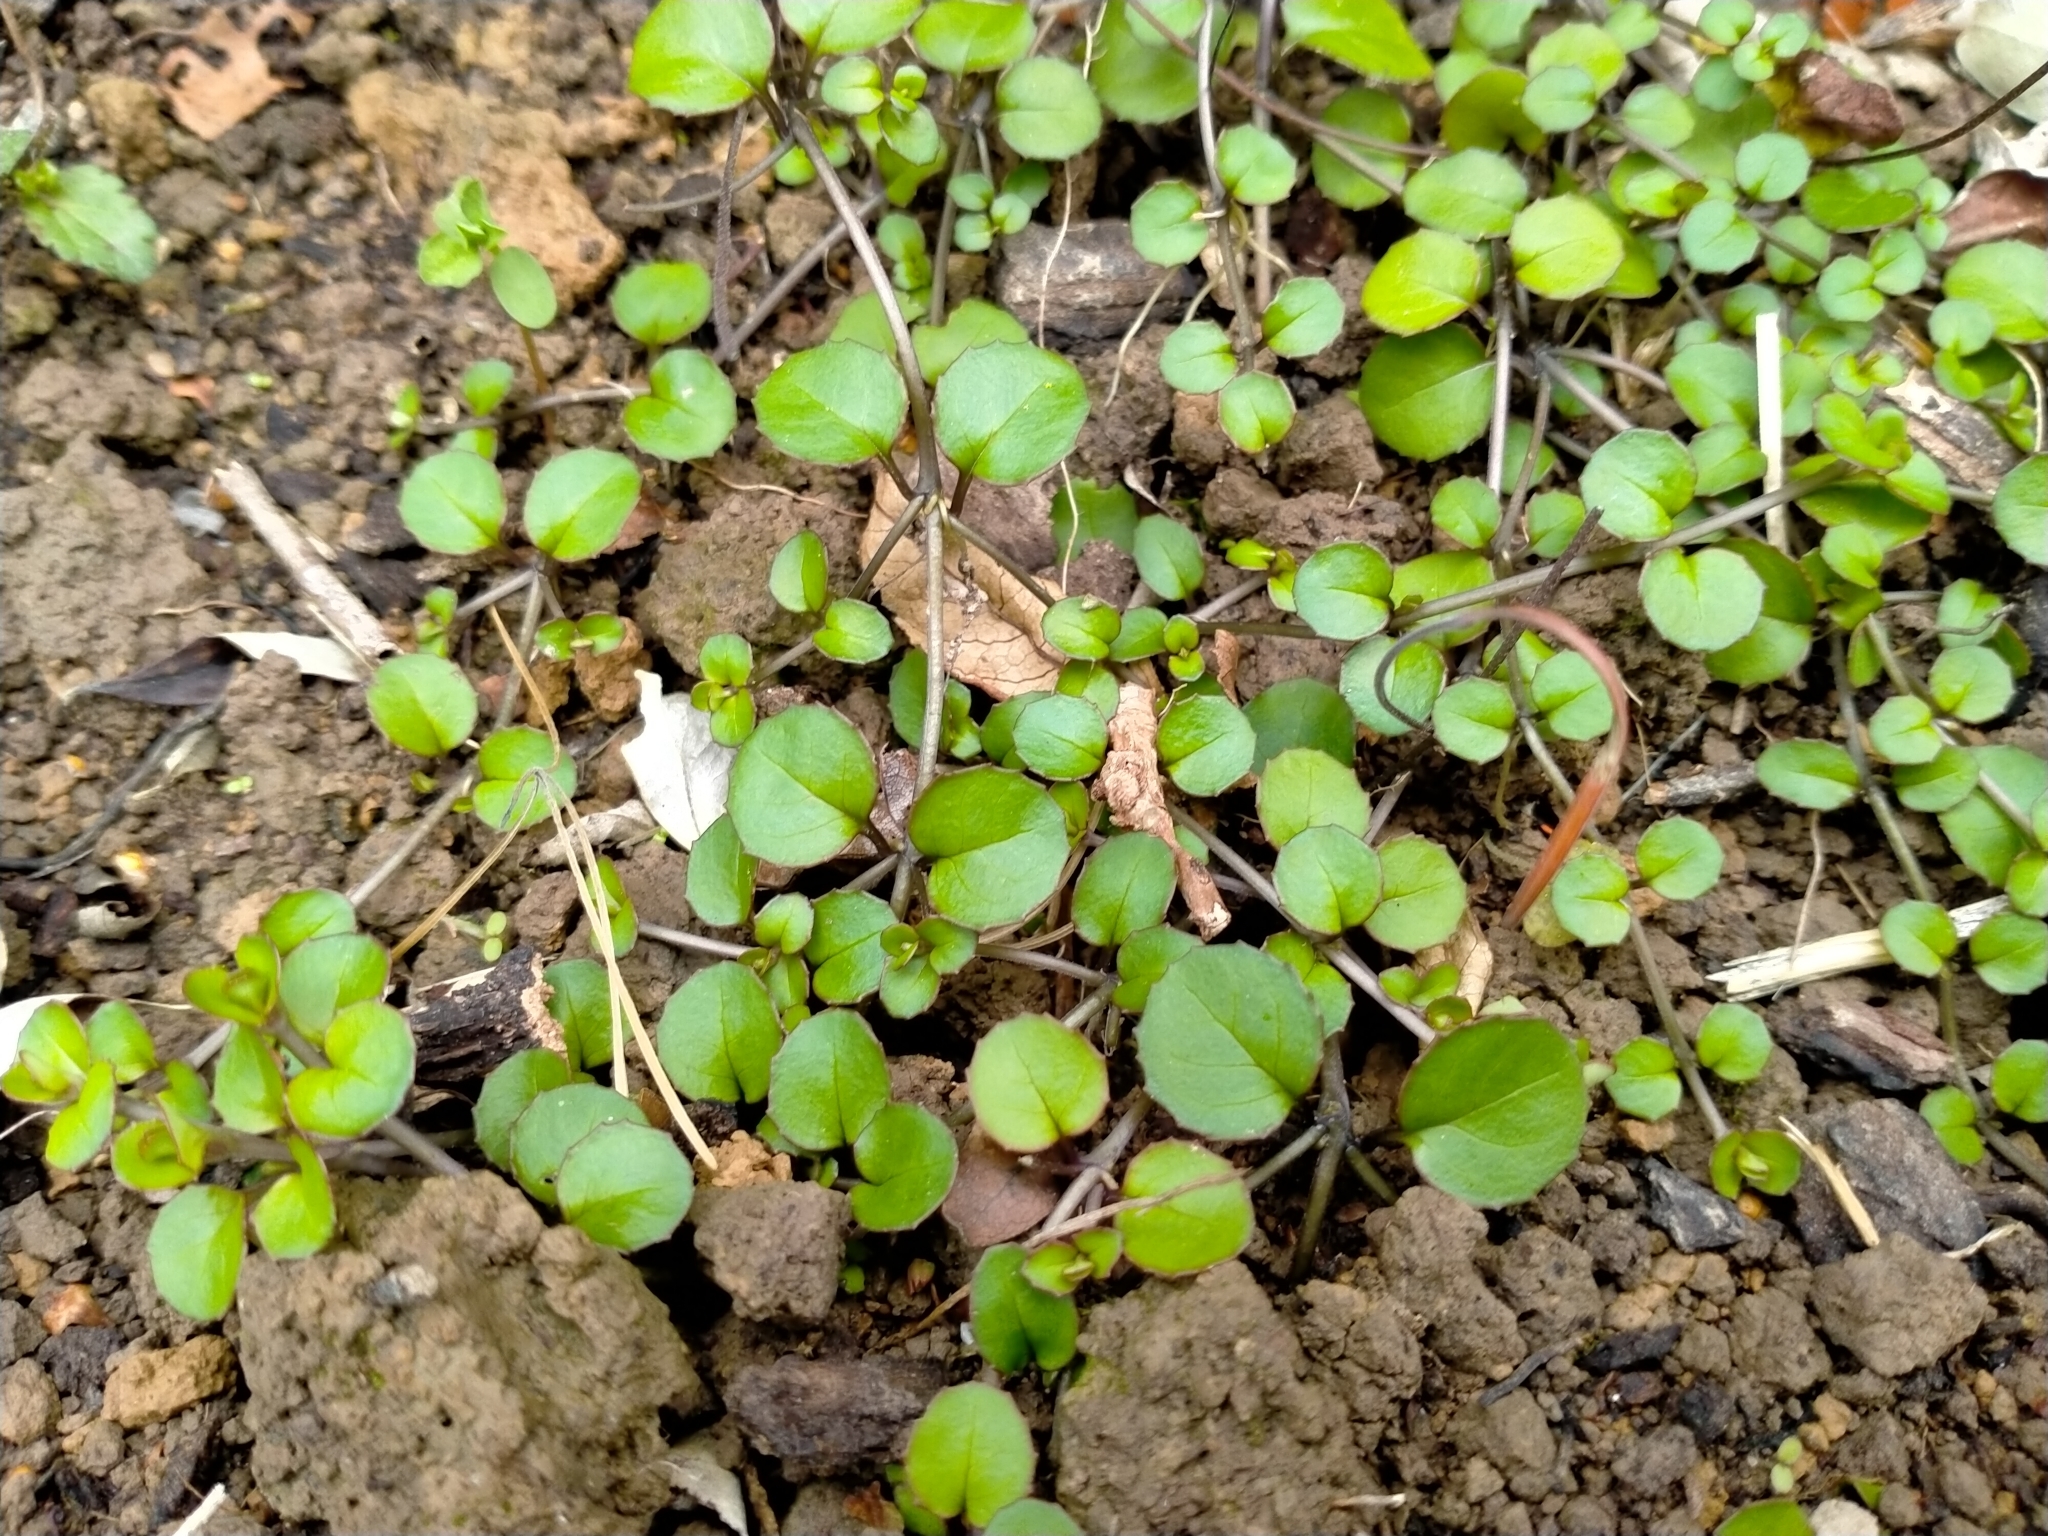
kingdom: Plantae
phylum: Tracheophyta
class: Magnoliopsida
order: Myrtales
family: Onagraceae
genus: Epilobium
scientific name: Epilobium nummularifolium
